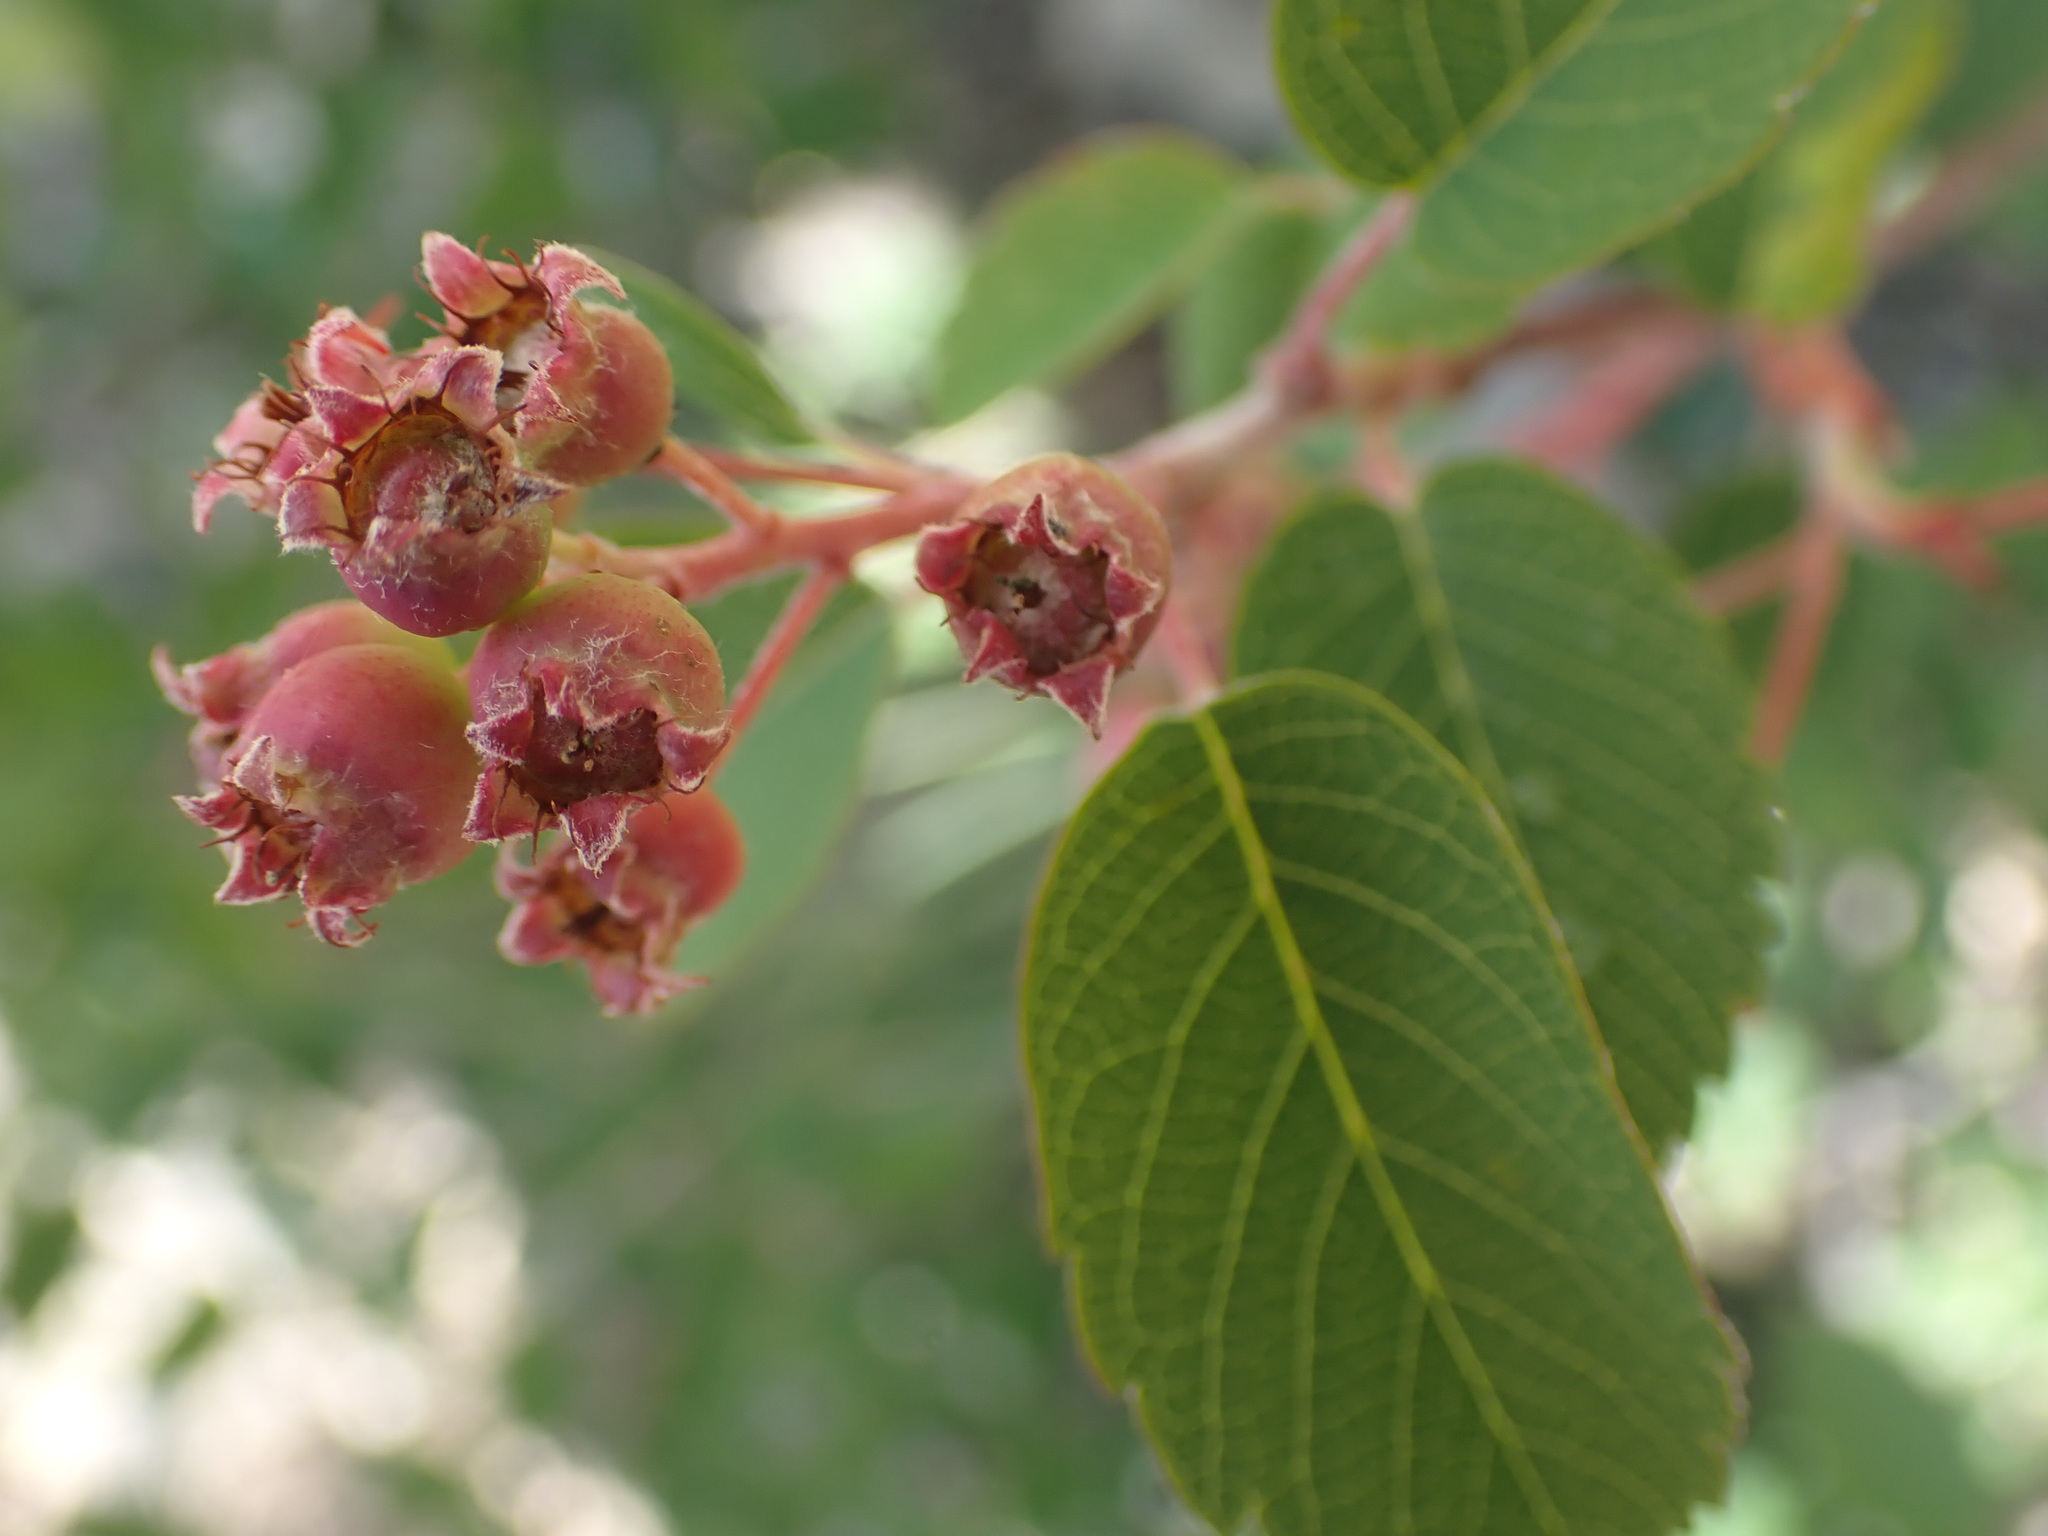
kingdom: Plantae
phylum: Tracheophyta
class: Magnoliopsida
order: Rosales
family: Rosaceae
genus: Amelanchier
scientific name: Amelanchier alnifolia
